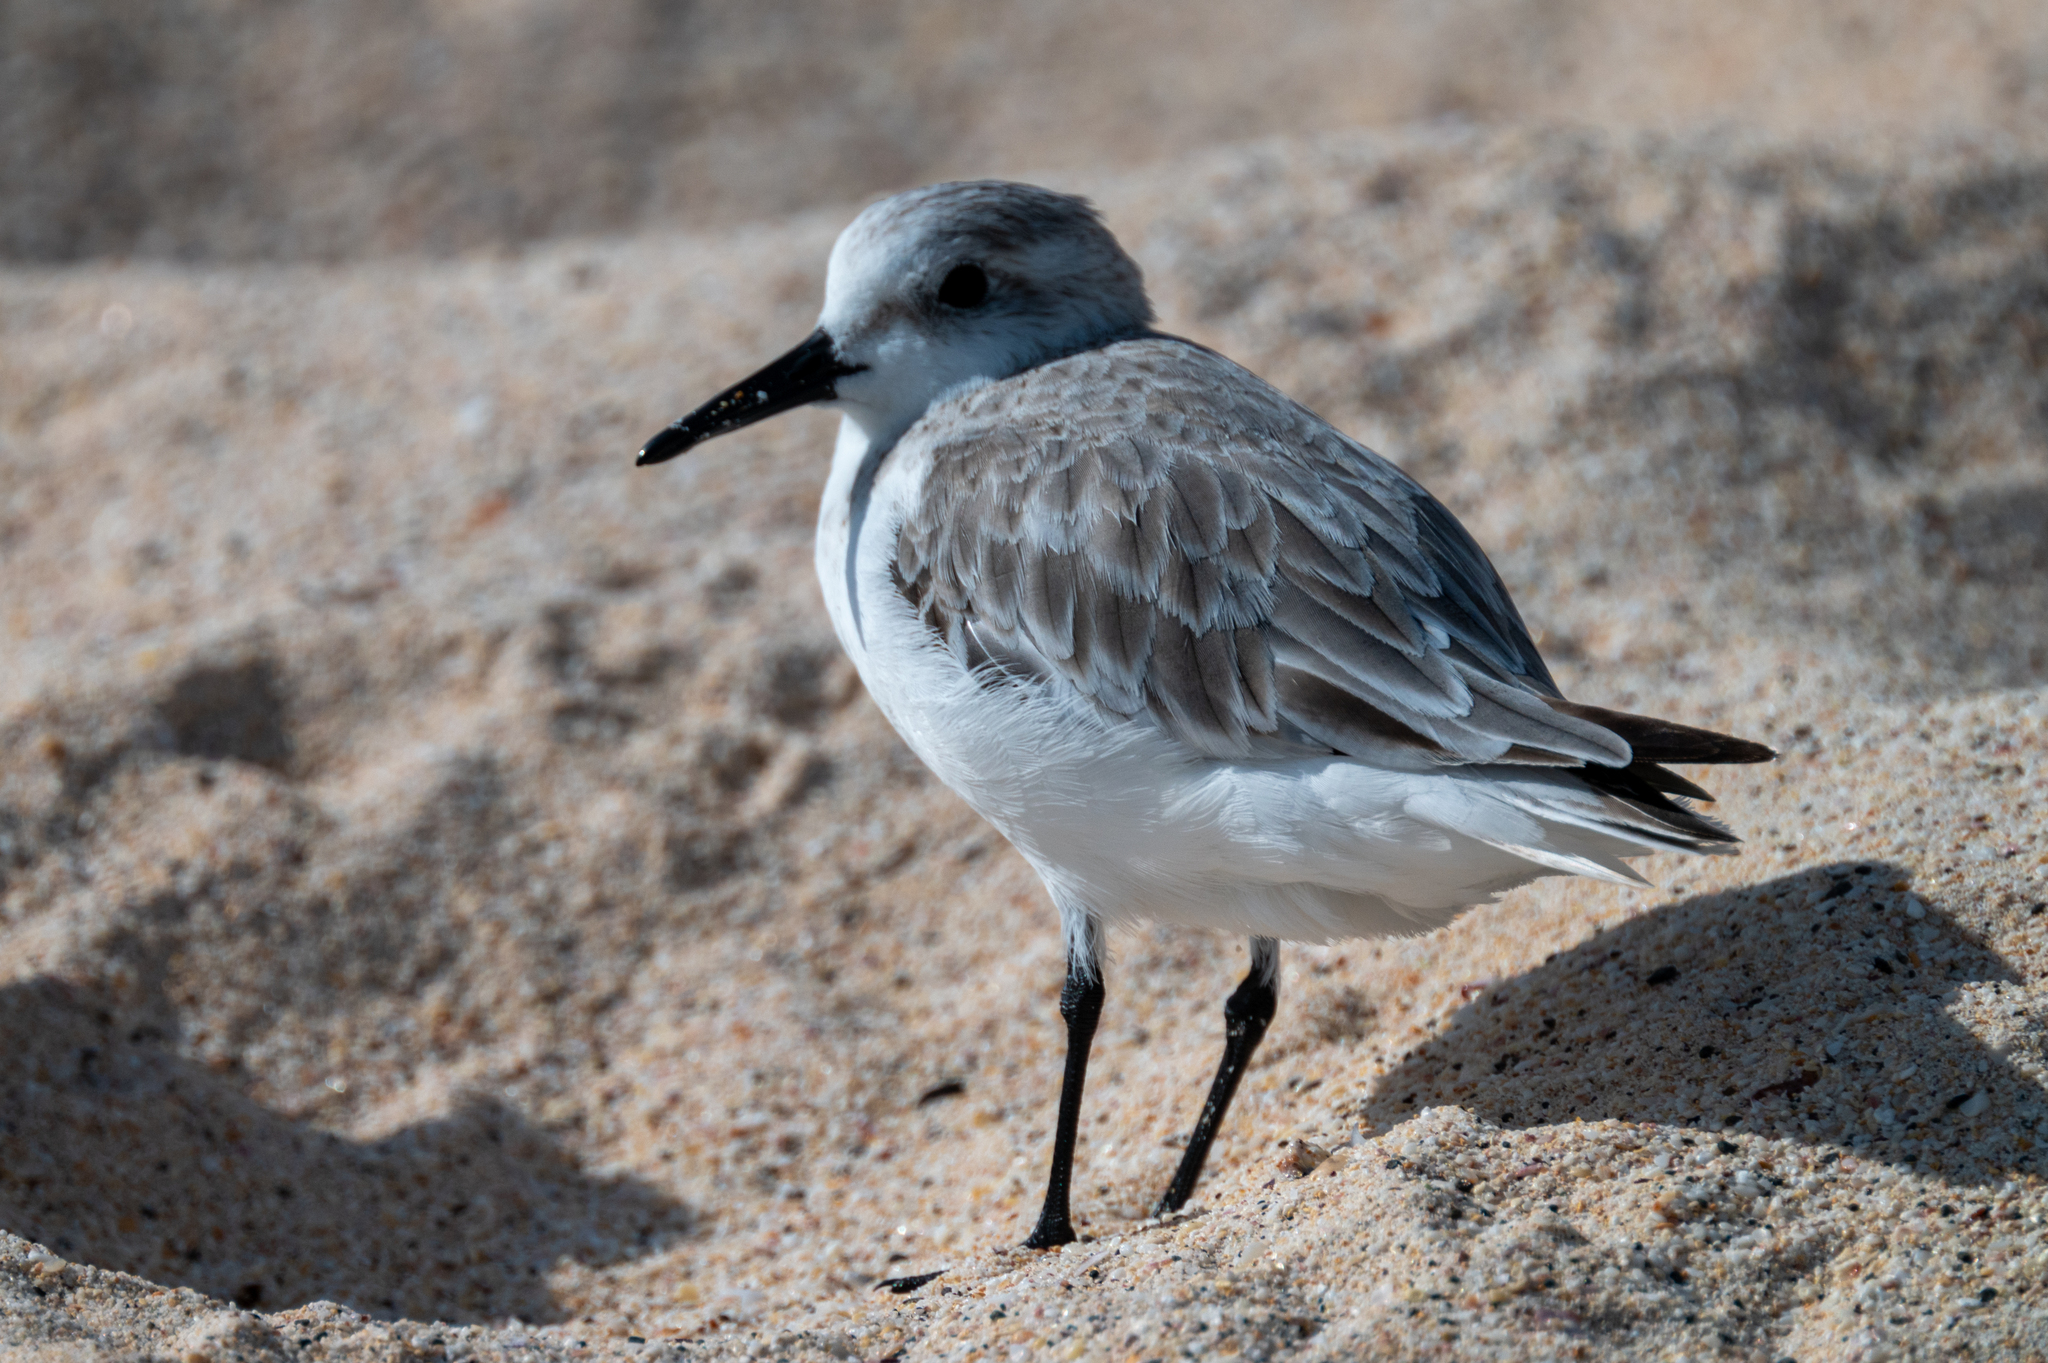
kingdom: Animalia
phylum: Chordata
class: Aves
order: Charadriiformes
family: Scolopacidae
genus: Calidris
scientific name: Calidris alba
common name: Sanderling
